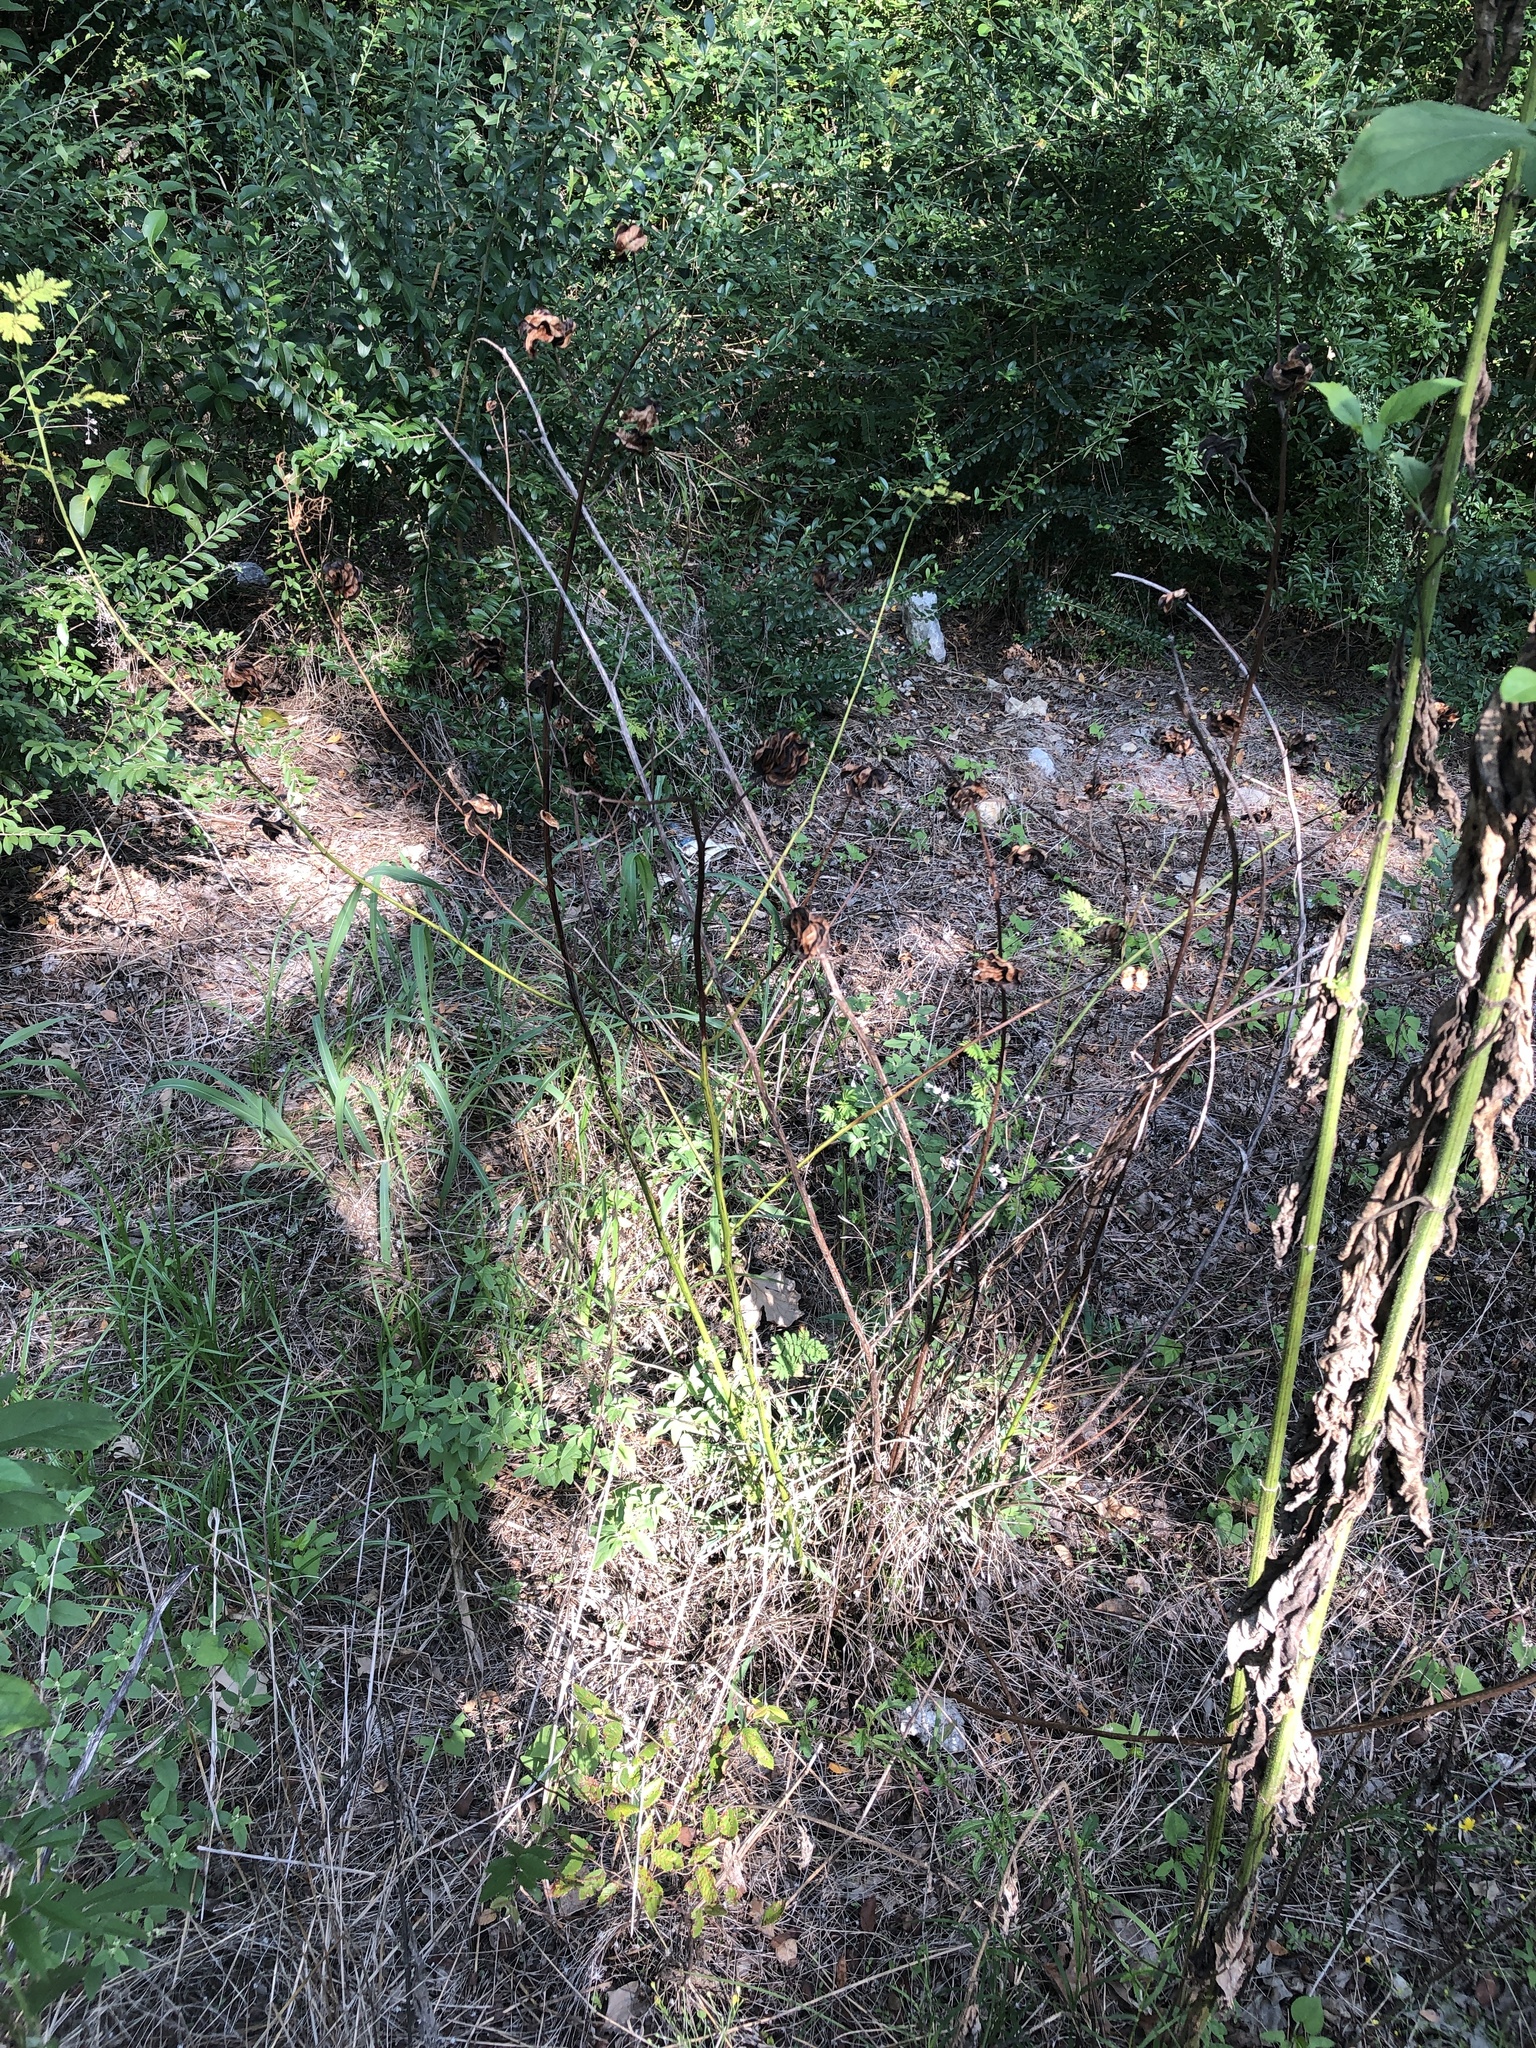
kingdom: Plantae
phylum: Tracheophyta
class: Magnoliopsida
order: Fabales
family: Fabaceae
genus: Desmanthus
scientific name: Desmanthus illinoensis
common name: Illinois bundle-flower
